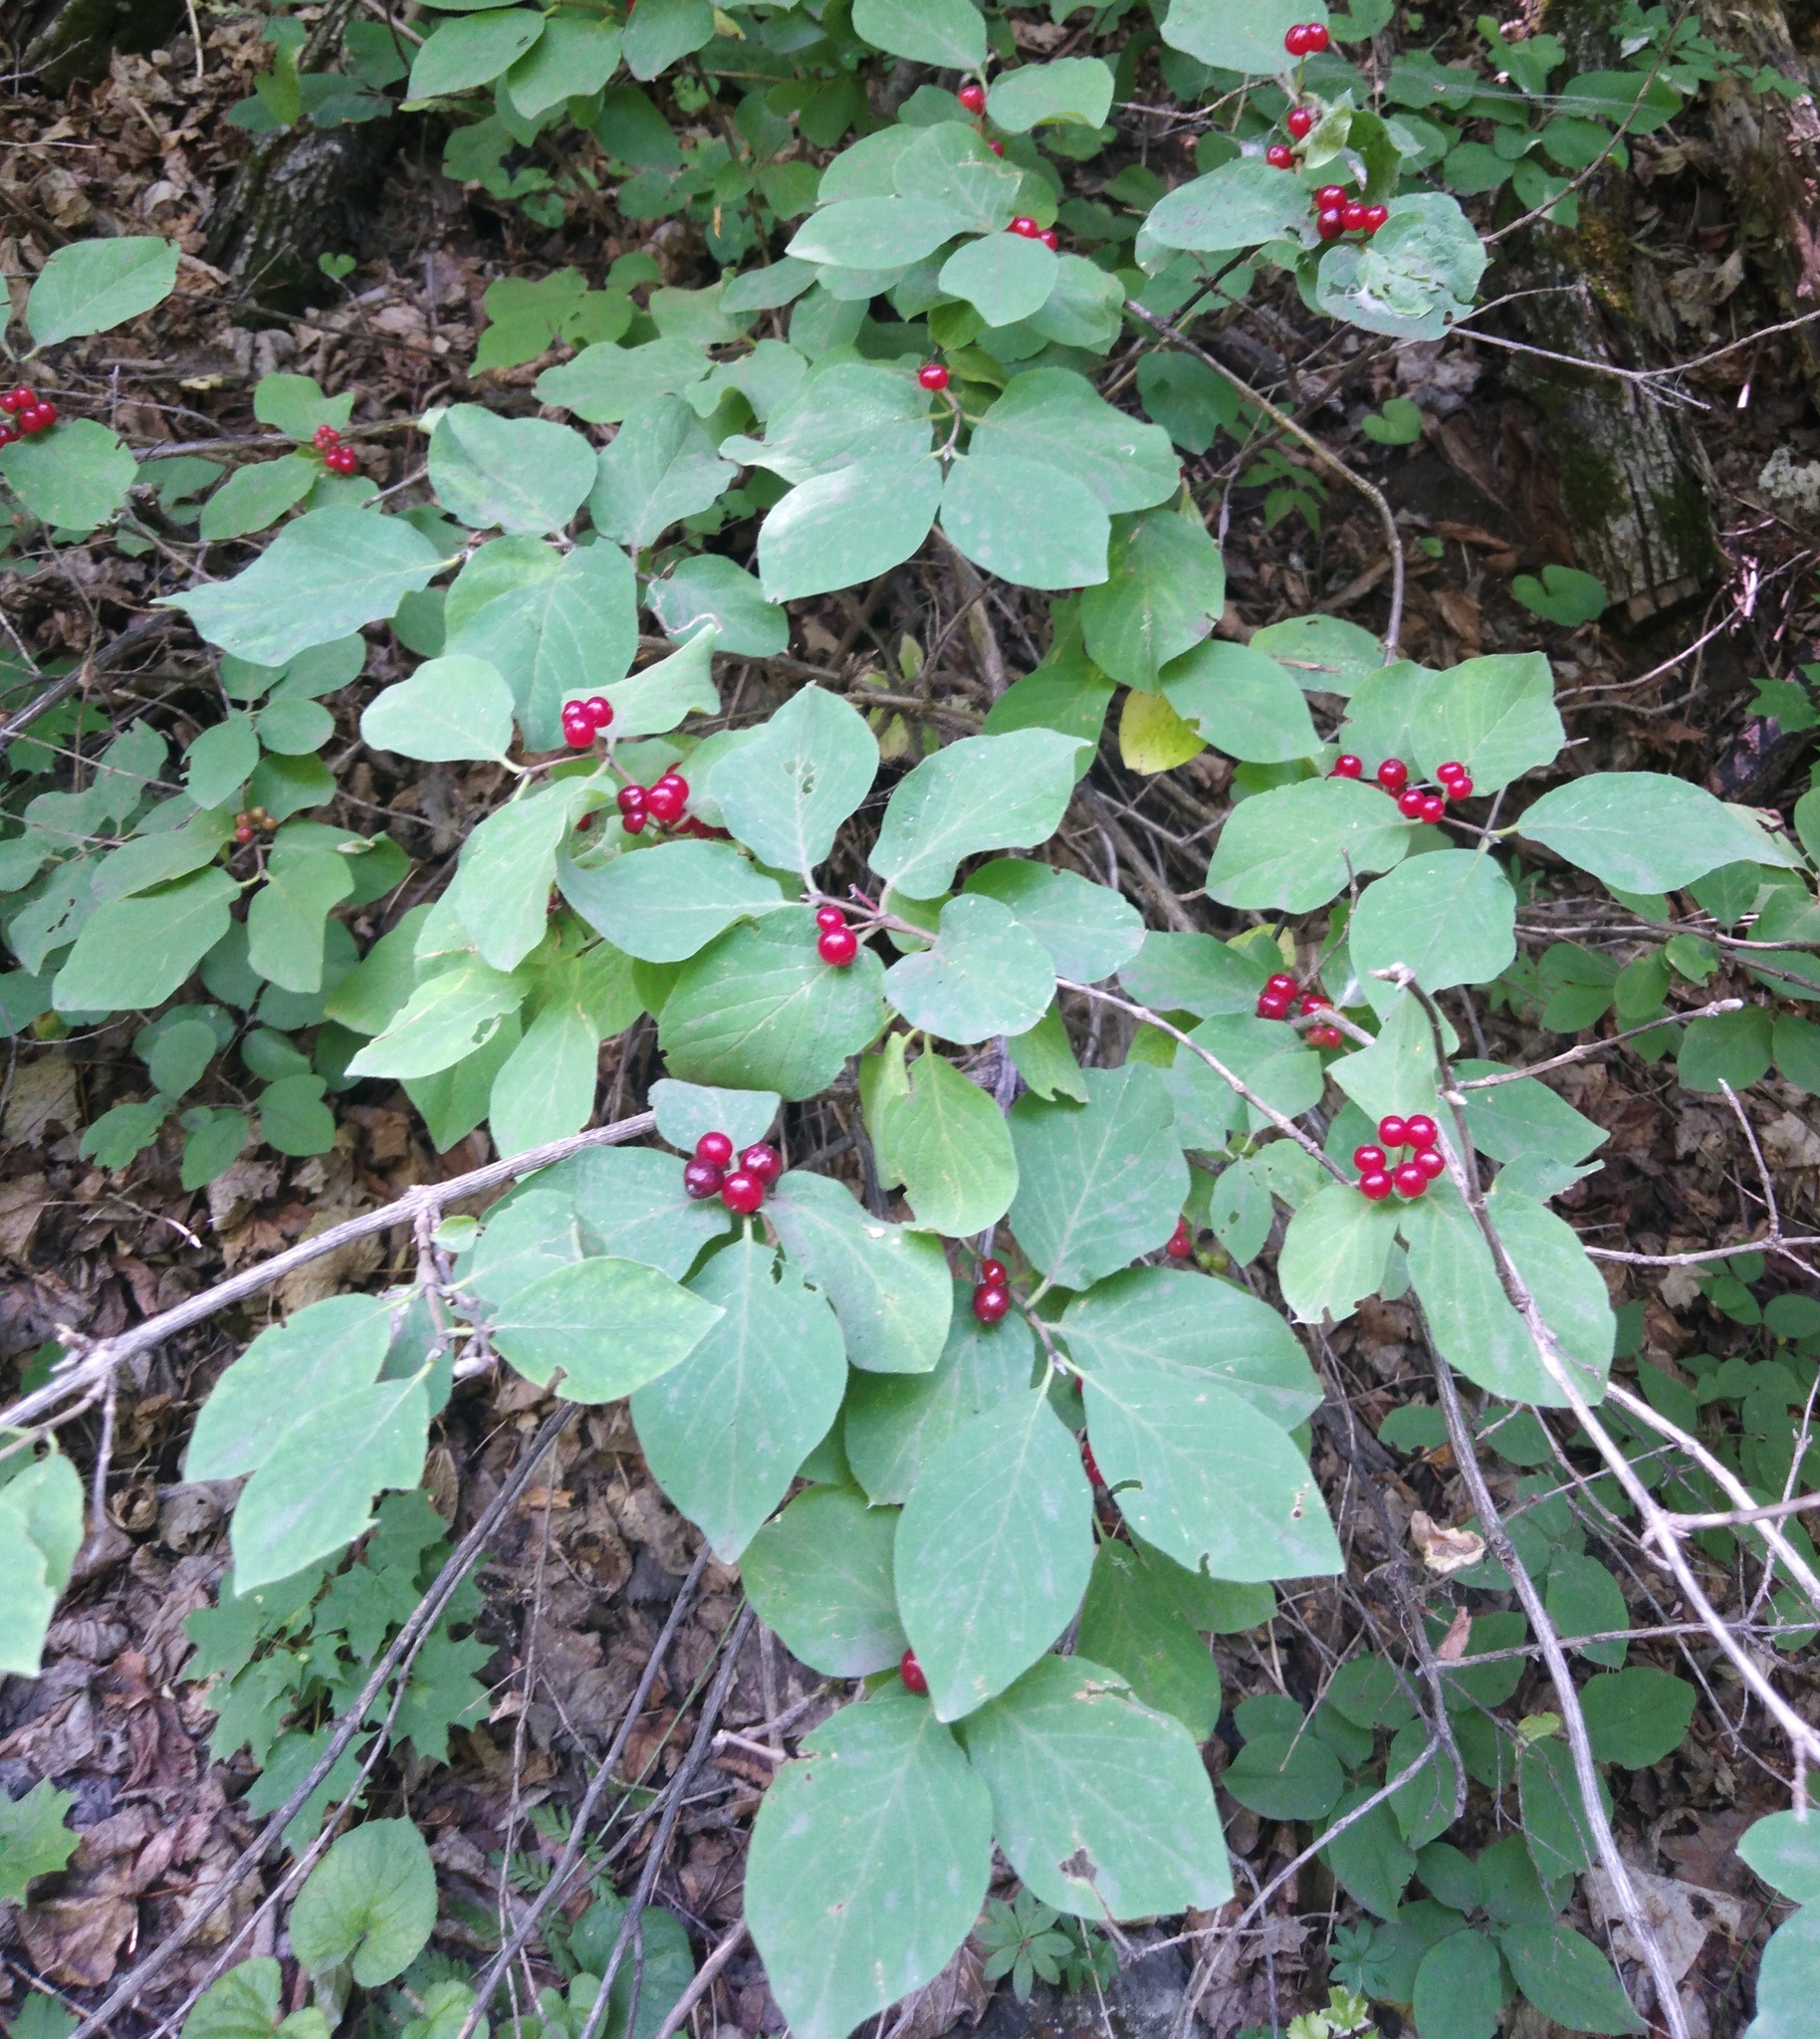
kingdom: Plantae
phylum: Tracheophyta
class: Magnoliopsida
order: Dipsacales
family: Caprifoliaceae
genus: Lonicera
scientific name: Lonicera xylosteum
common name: Fly honeysuckle
